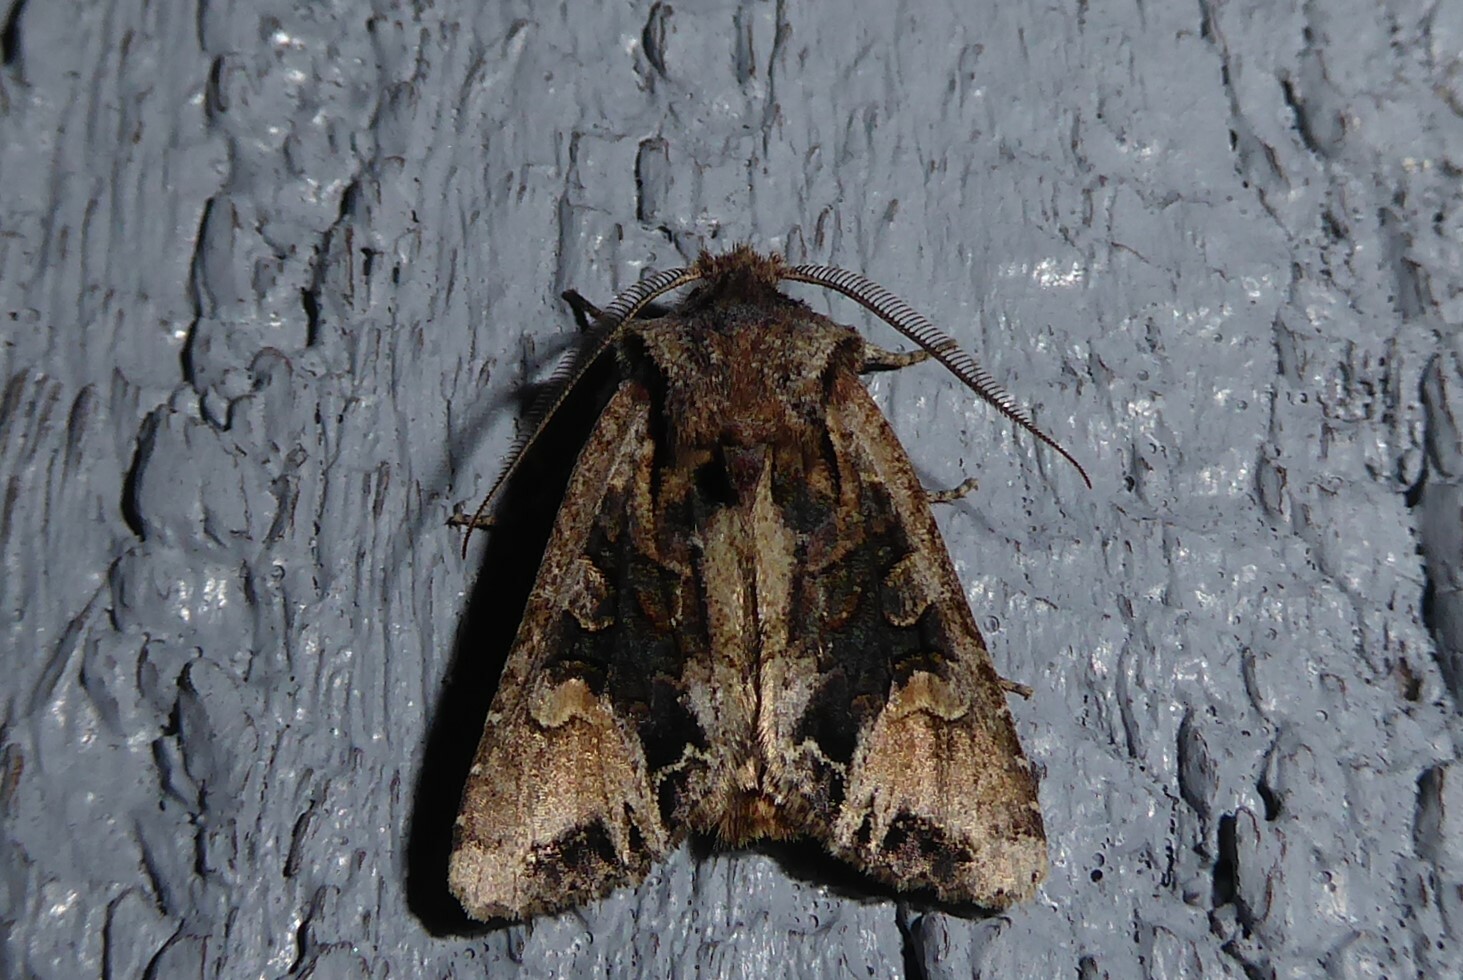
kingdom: Animalia
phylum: Arthropoda
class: Insecta
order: Lepidoptera
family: Noctuidae
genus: Ichneutica
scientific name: Ichneutica
